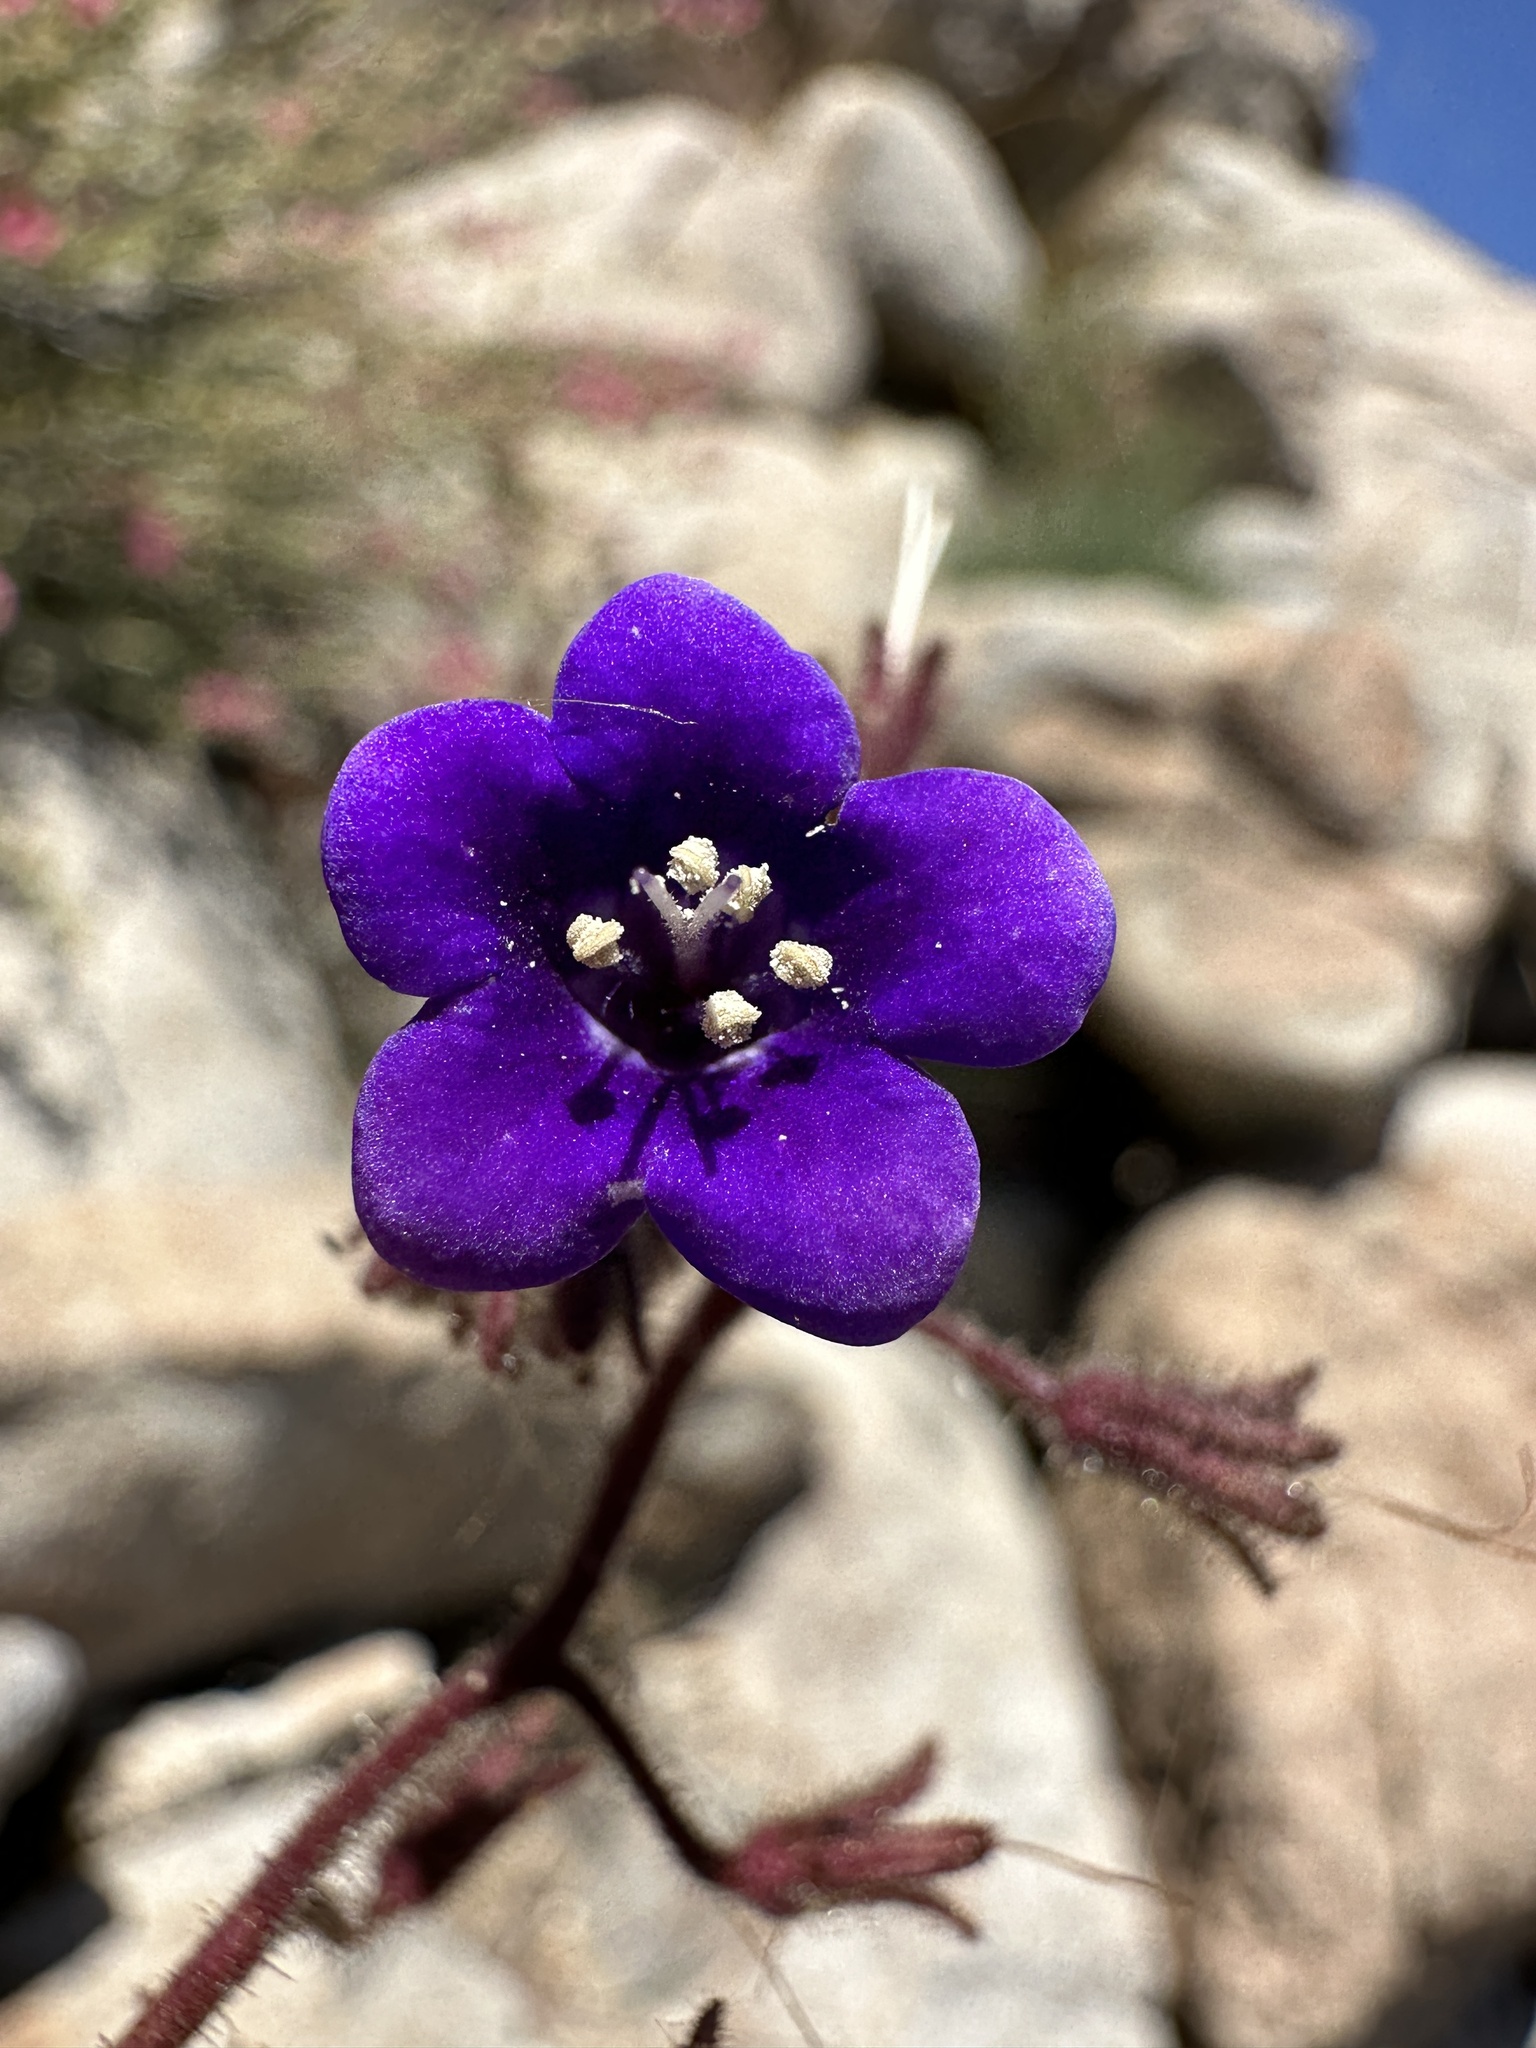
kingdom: Plantae
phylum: Tracheophyta
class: Magnoliopsida
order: Boraginales
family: Hydrophyllaceae
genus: Phacelia
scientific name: Phacelia minor
